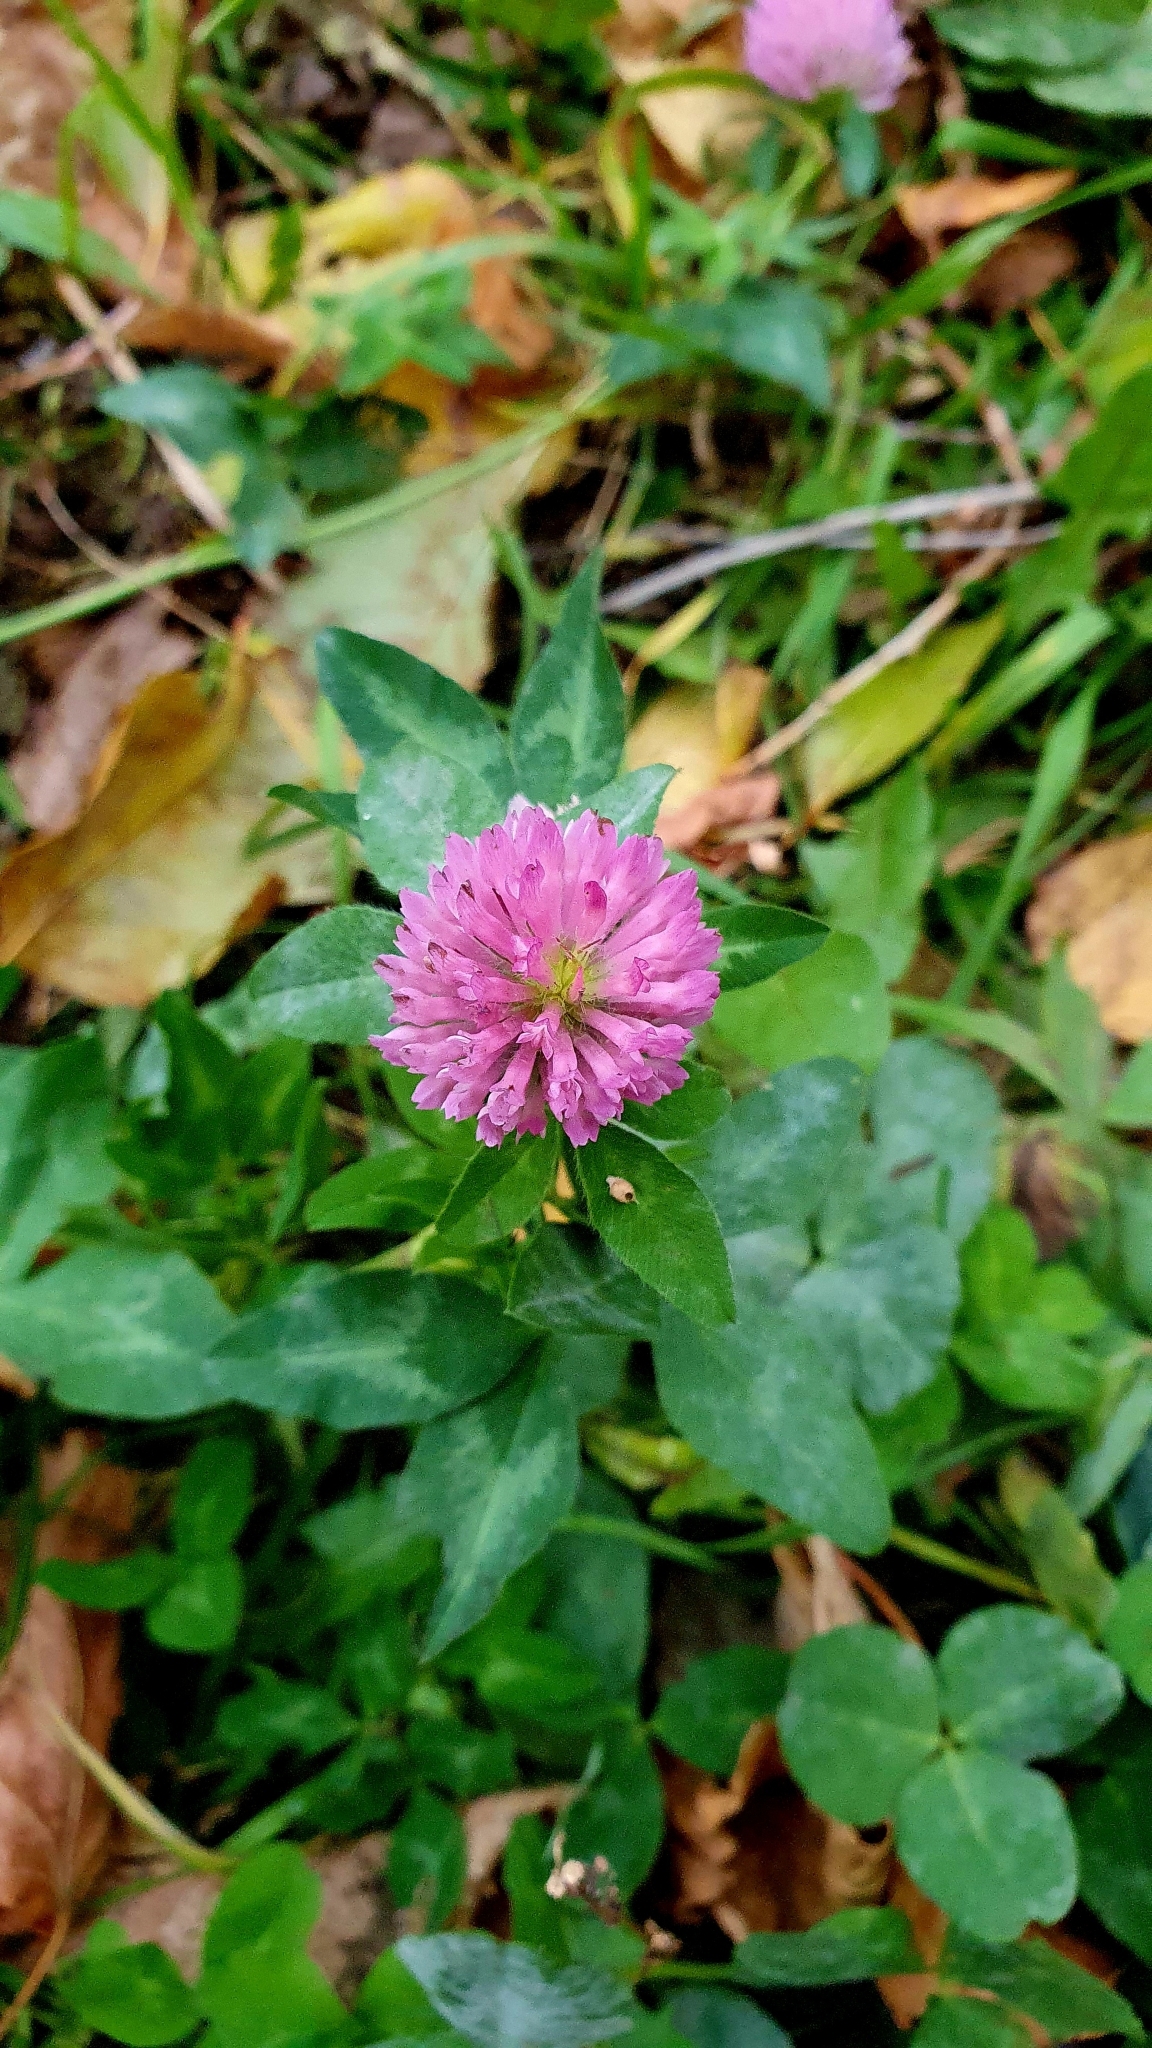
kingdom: Plantae
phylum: Tracheophyta
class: Magnoliopsida
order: Fabales
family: Fabaceae
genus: Trifolium
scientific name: Trifolium pratense
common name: Red clover
